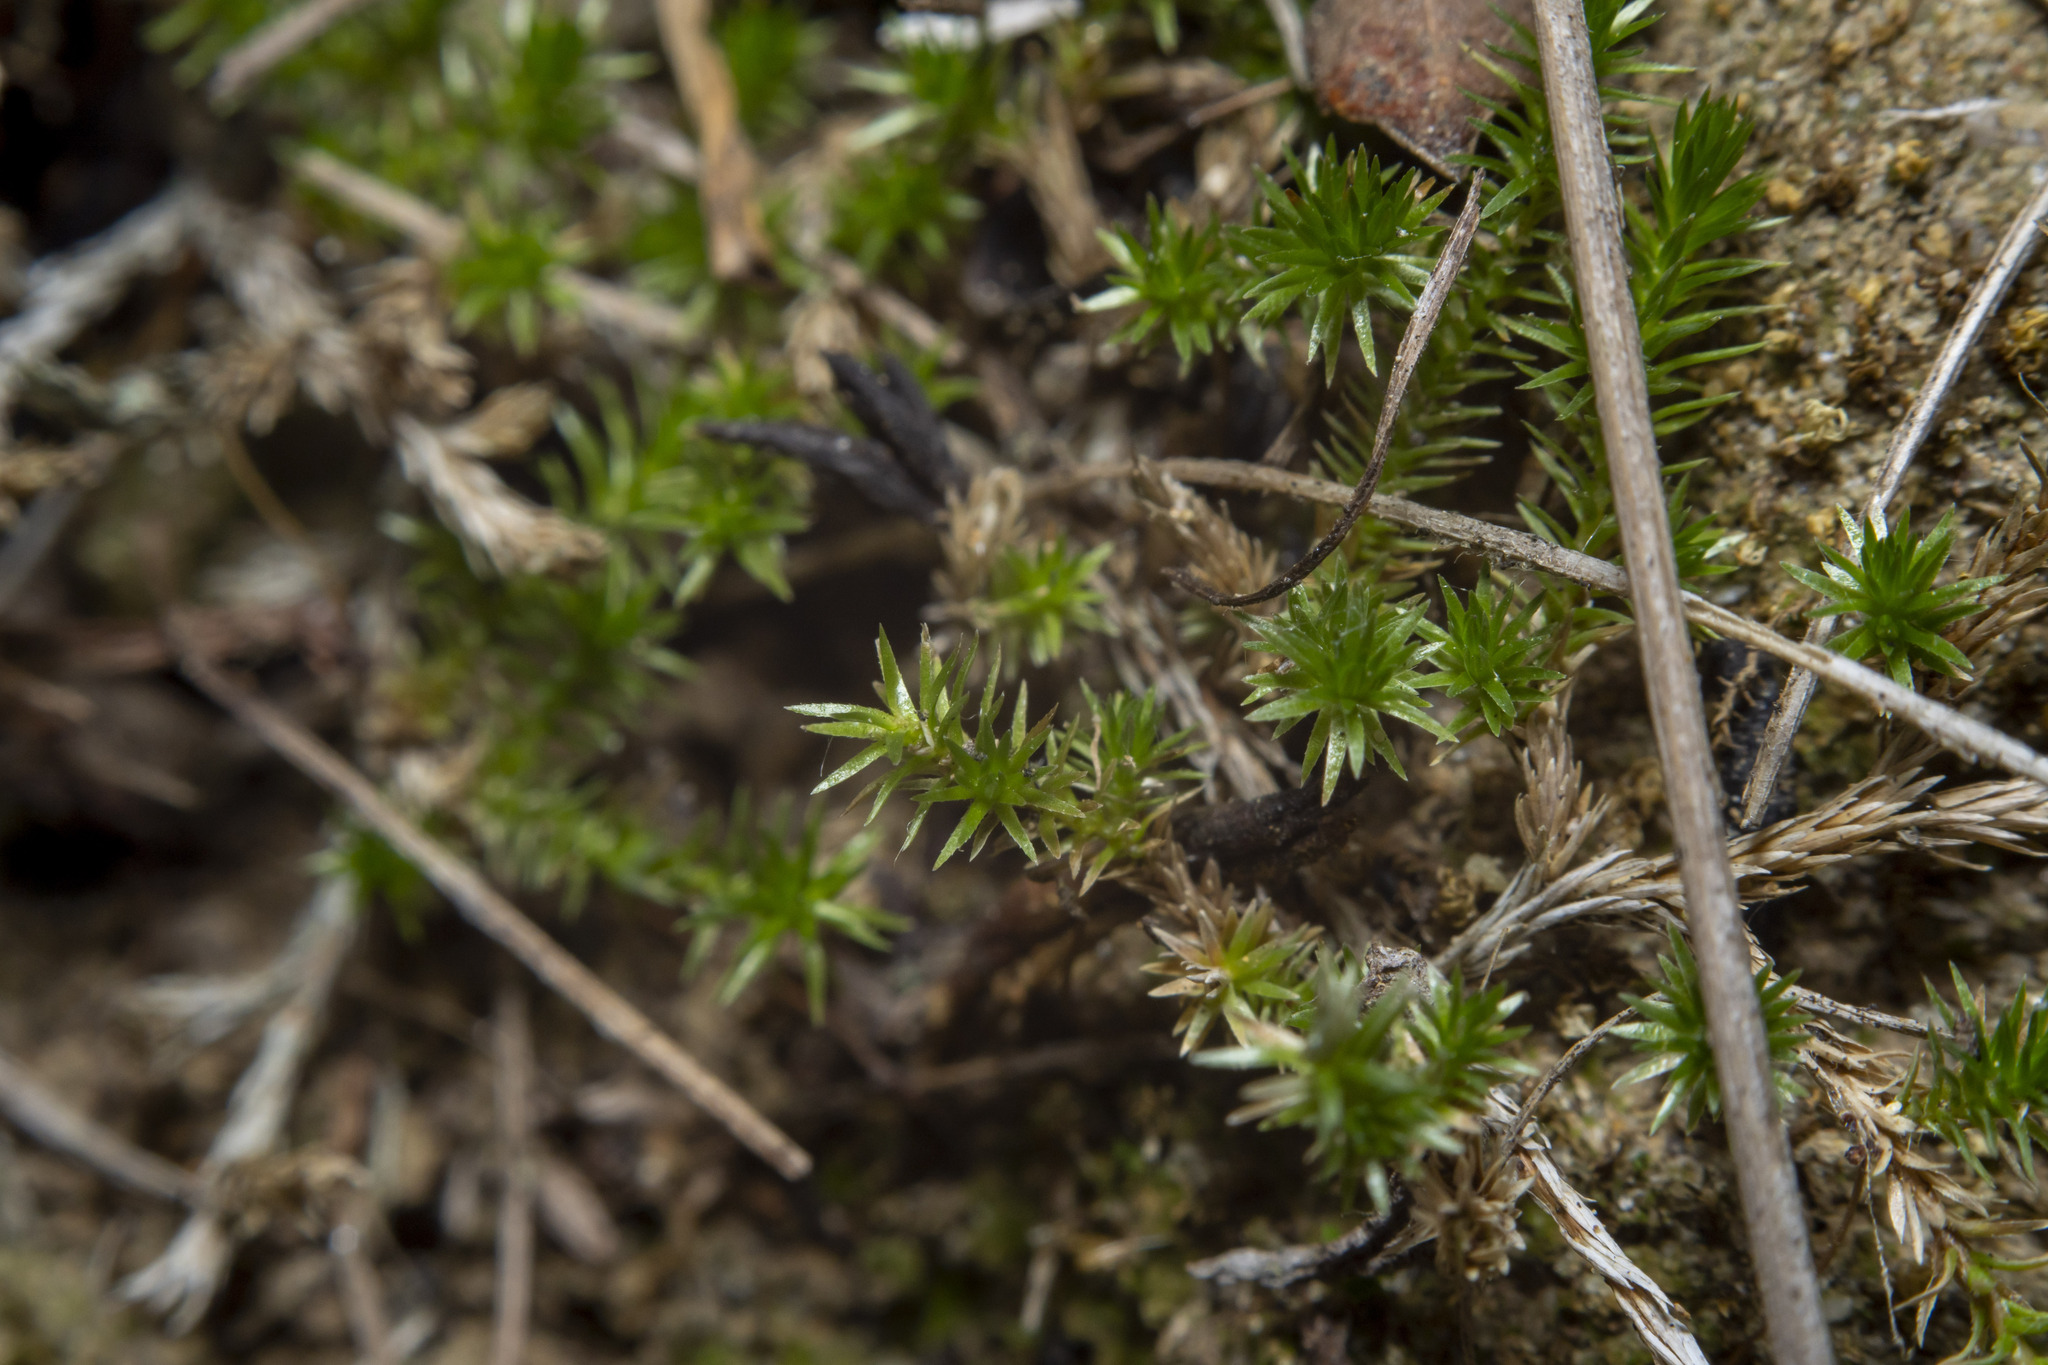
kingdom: Plantae
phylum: Tracheophyta
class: Lycopodiopsida
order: Selaginellales
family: Selaginellaceae
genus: Selaginella
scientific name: Selaginella cinerascens
